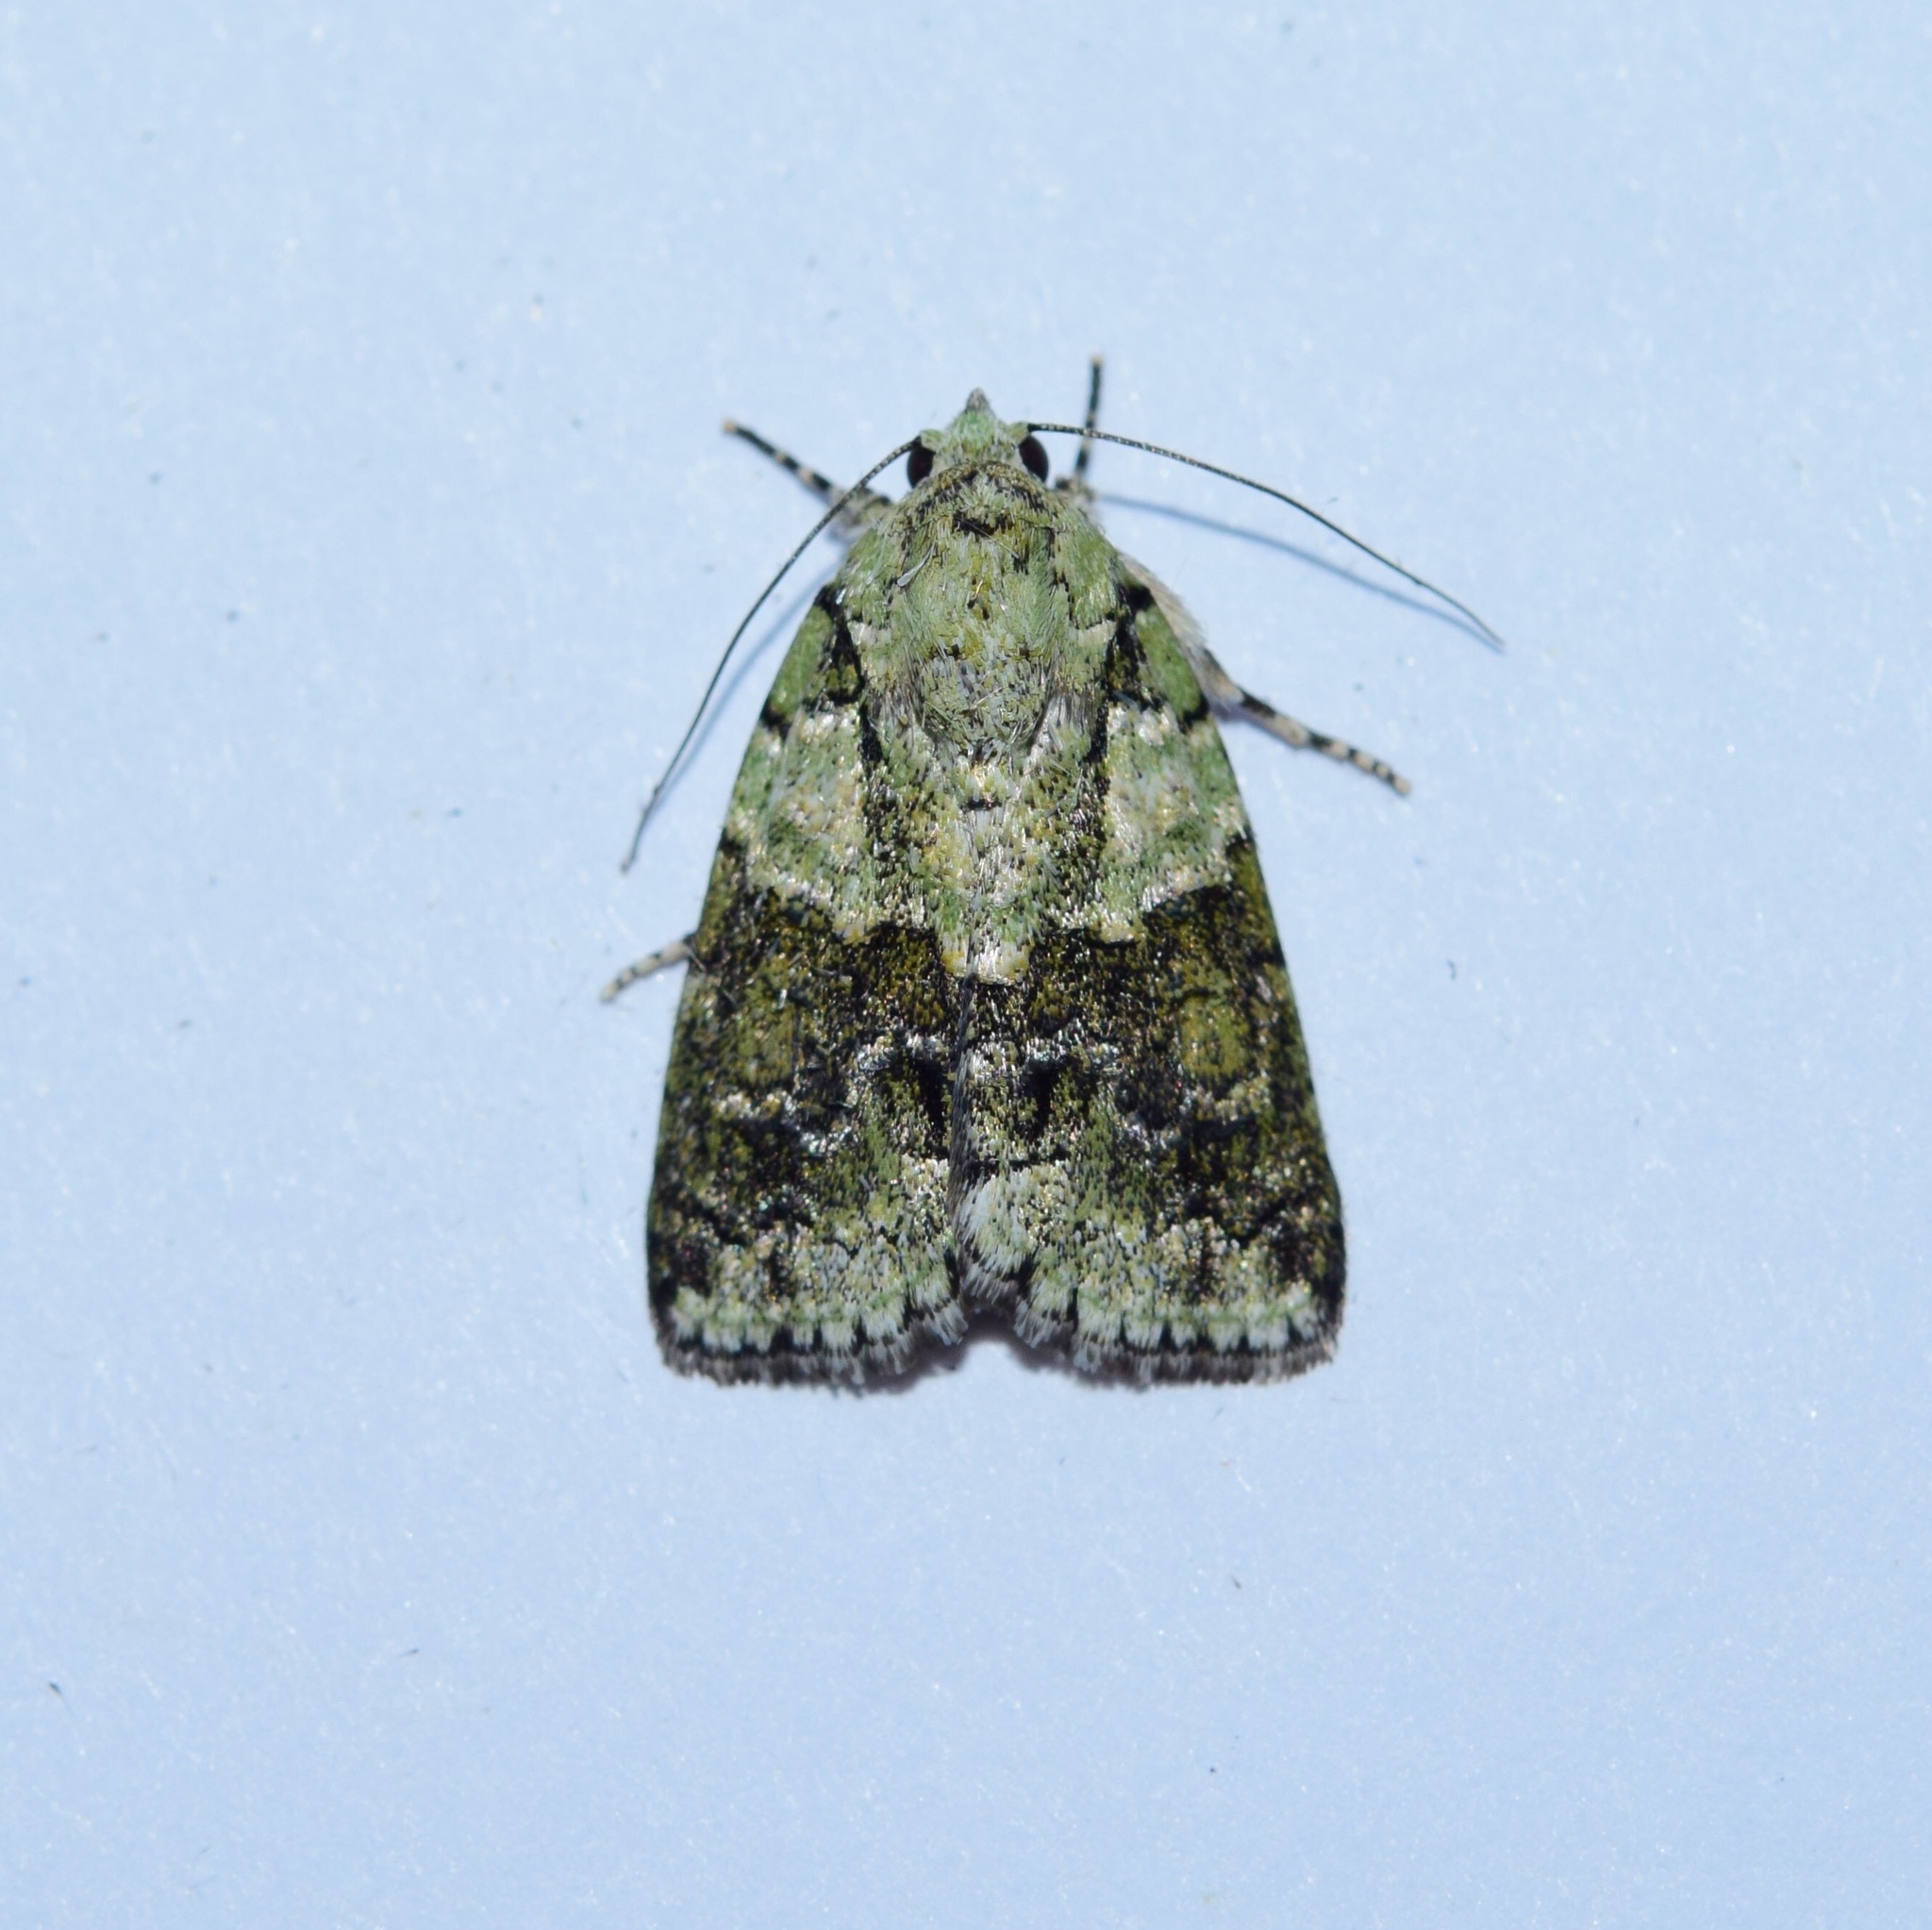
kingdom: Animalia
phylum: Arthropoda
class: Insecta
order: Lepidoptera
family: Nolidae
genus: Blenina
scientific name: Blenina squamifera
